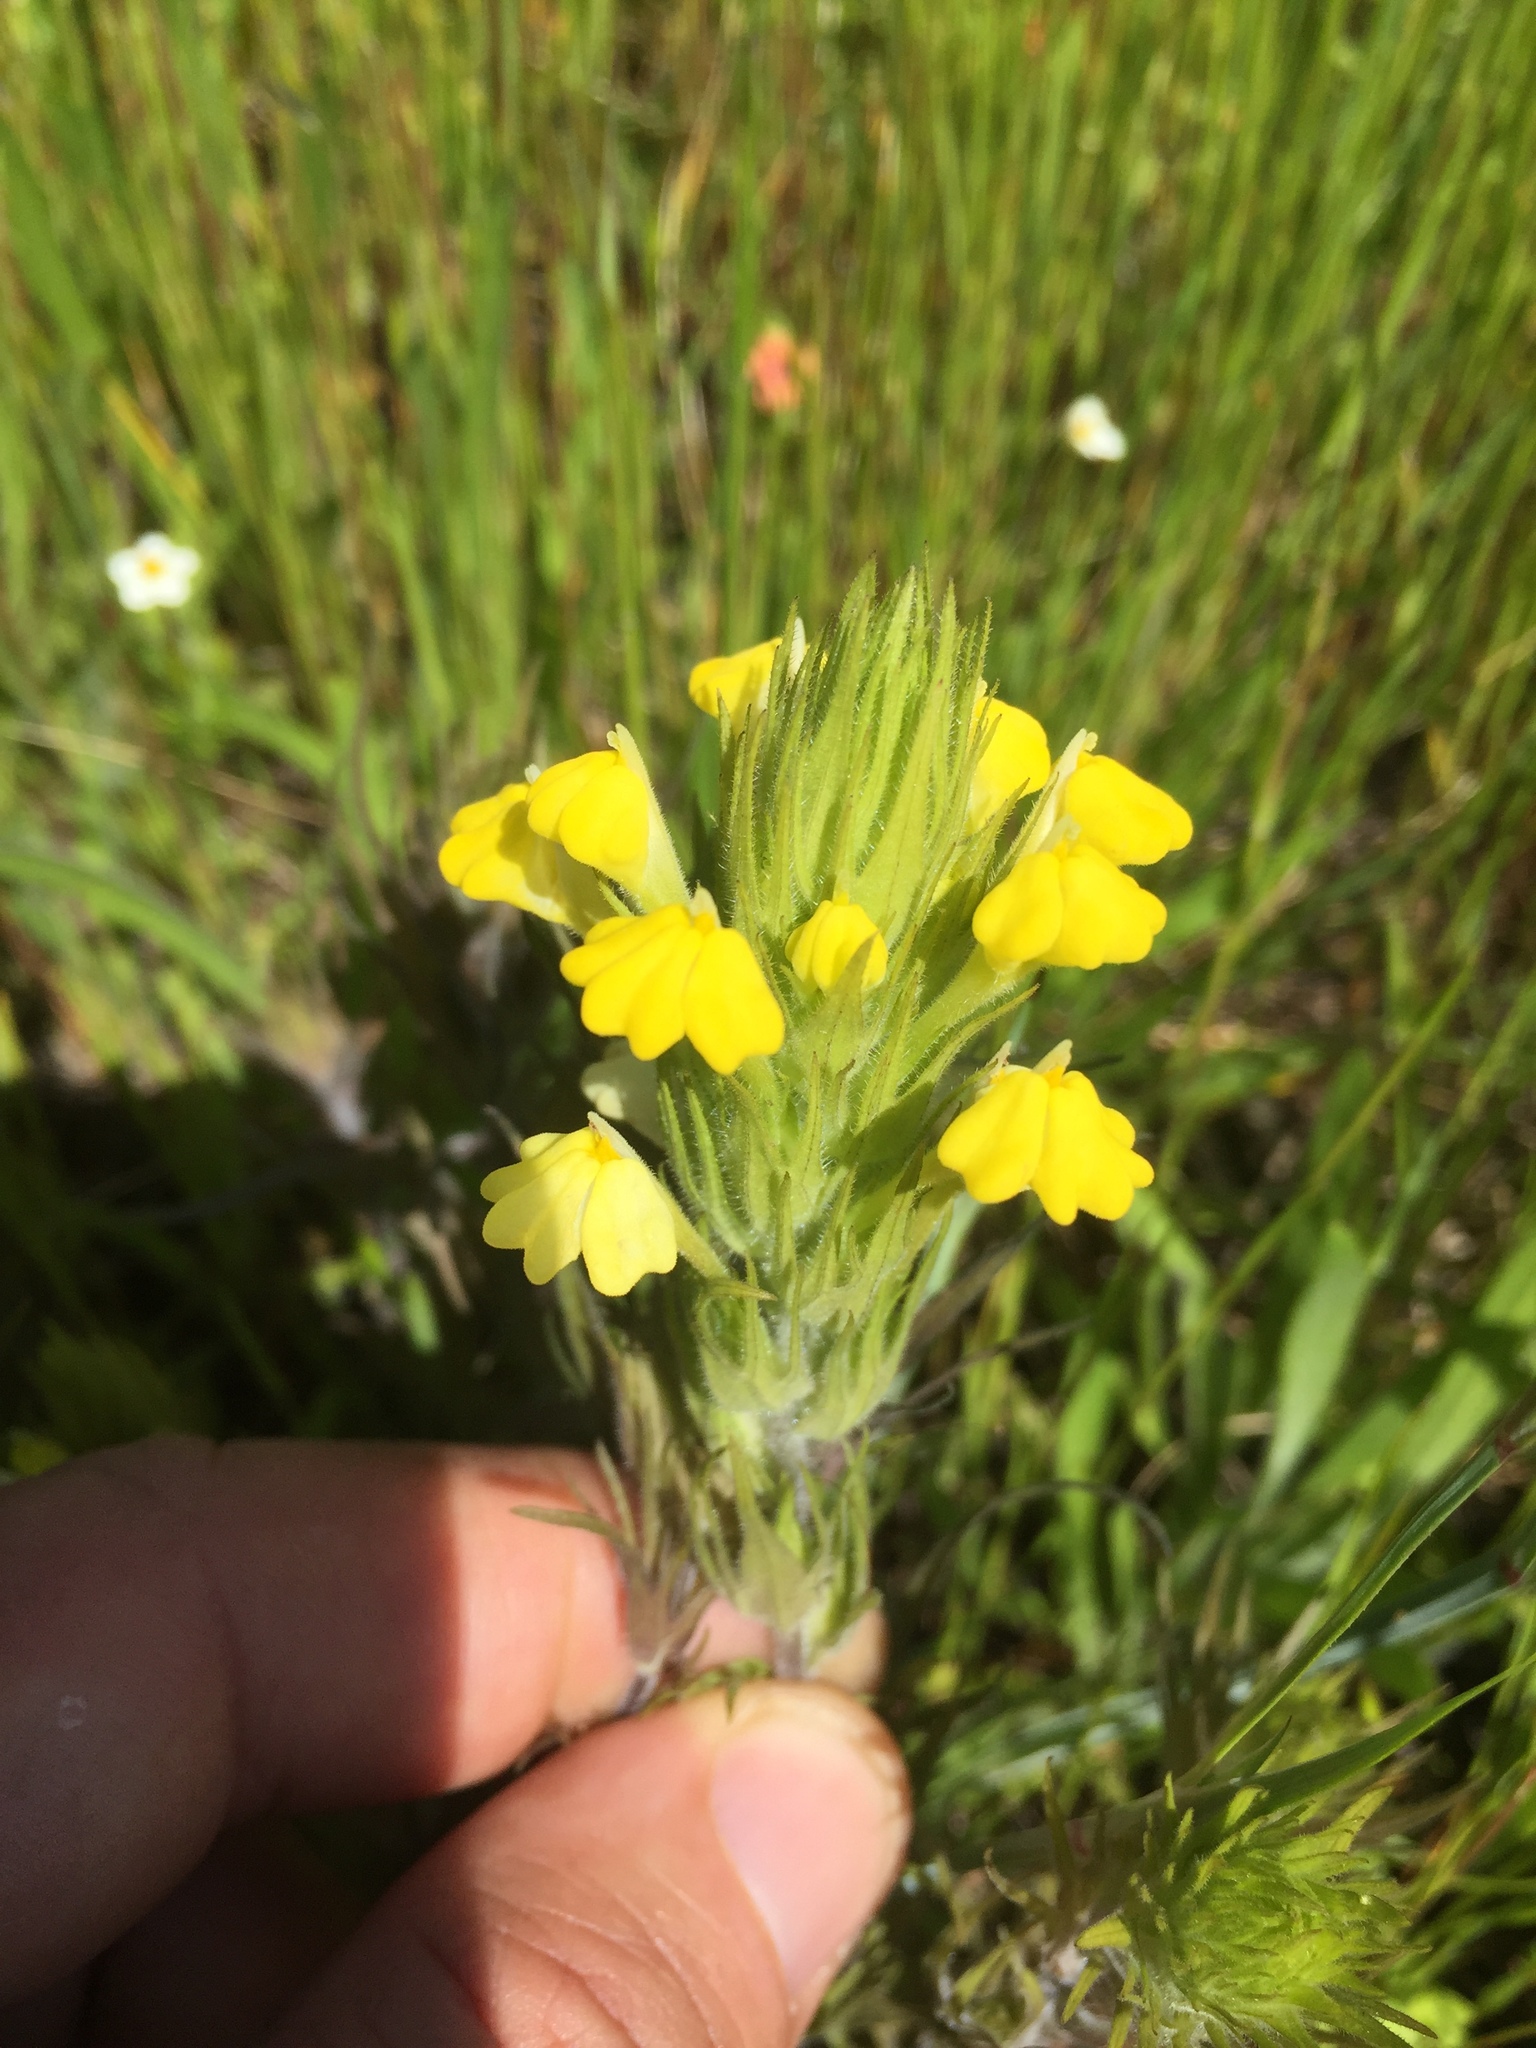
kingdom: Plantae
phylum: Tracheophyta
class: Magnoliopsida
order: Lamiales
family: Orobanchaceae
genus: Castilleja
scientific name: Castilleja rubicundula
